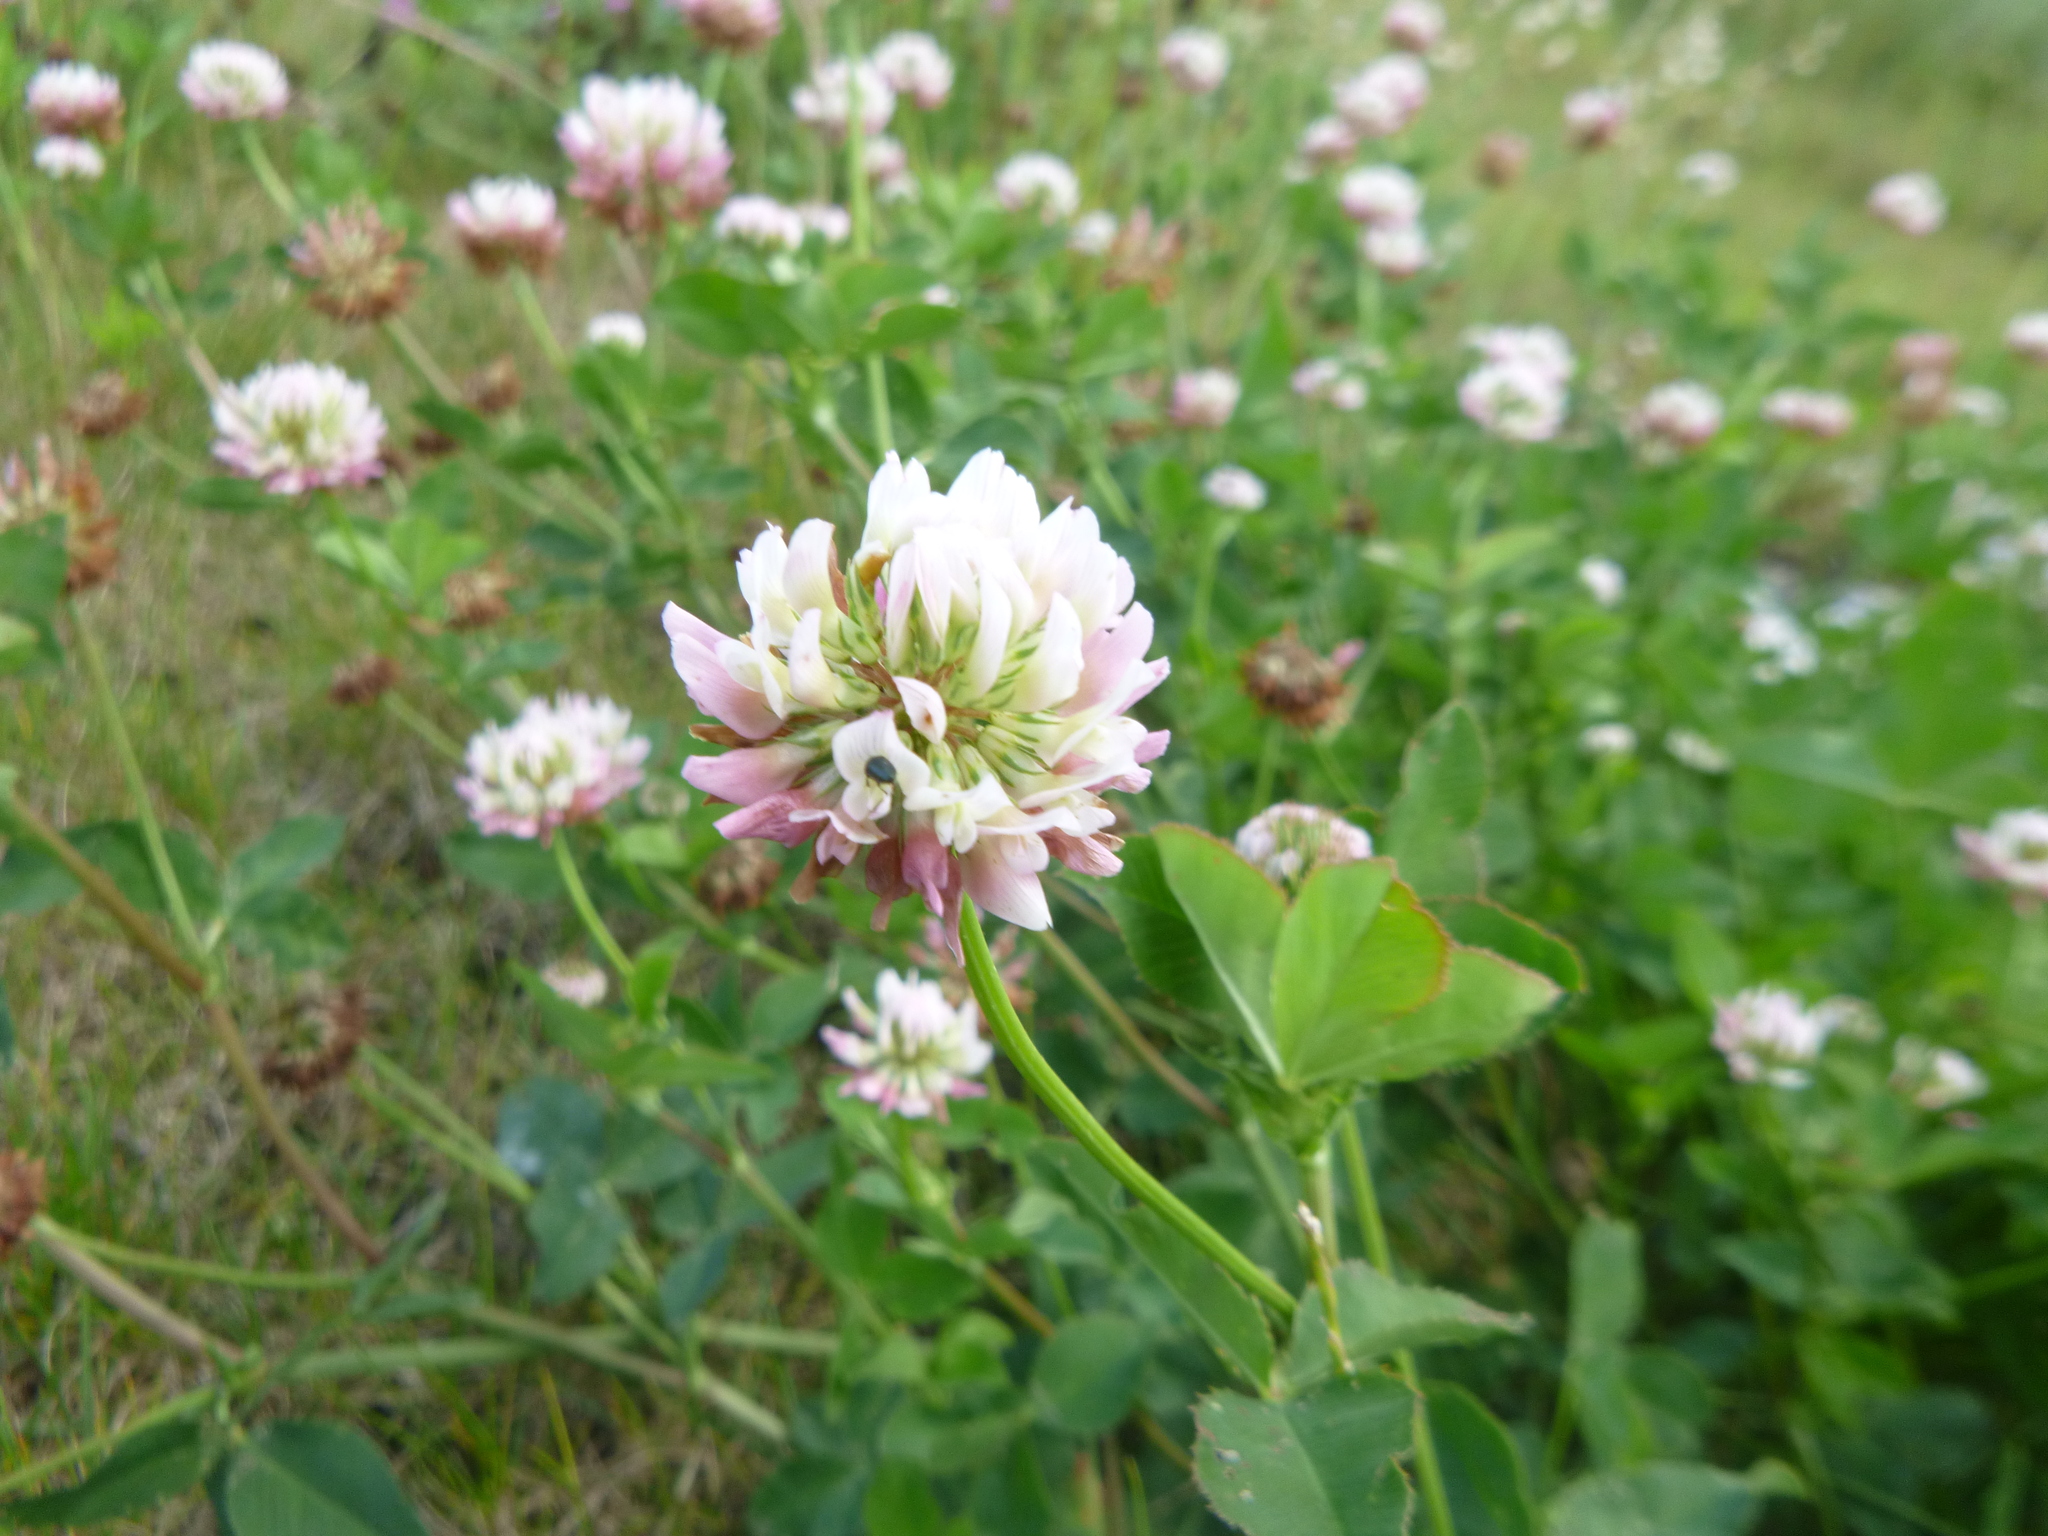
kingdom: Plantae
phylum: Tracheophyta
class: Magnoliopsida
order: Fabales
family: Fabaceae
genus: Trifolium
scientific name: Trifolium hybridum
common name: Alsike clover
